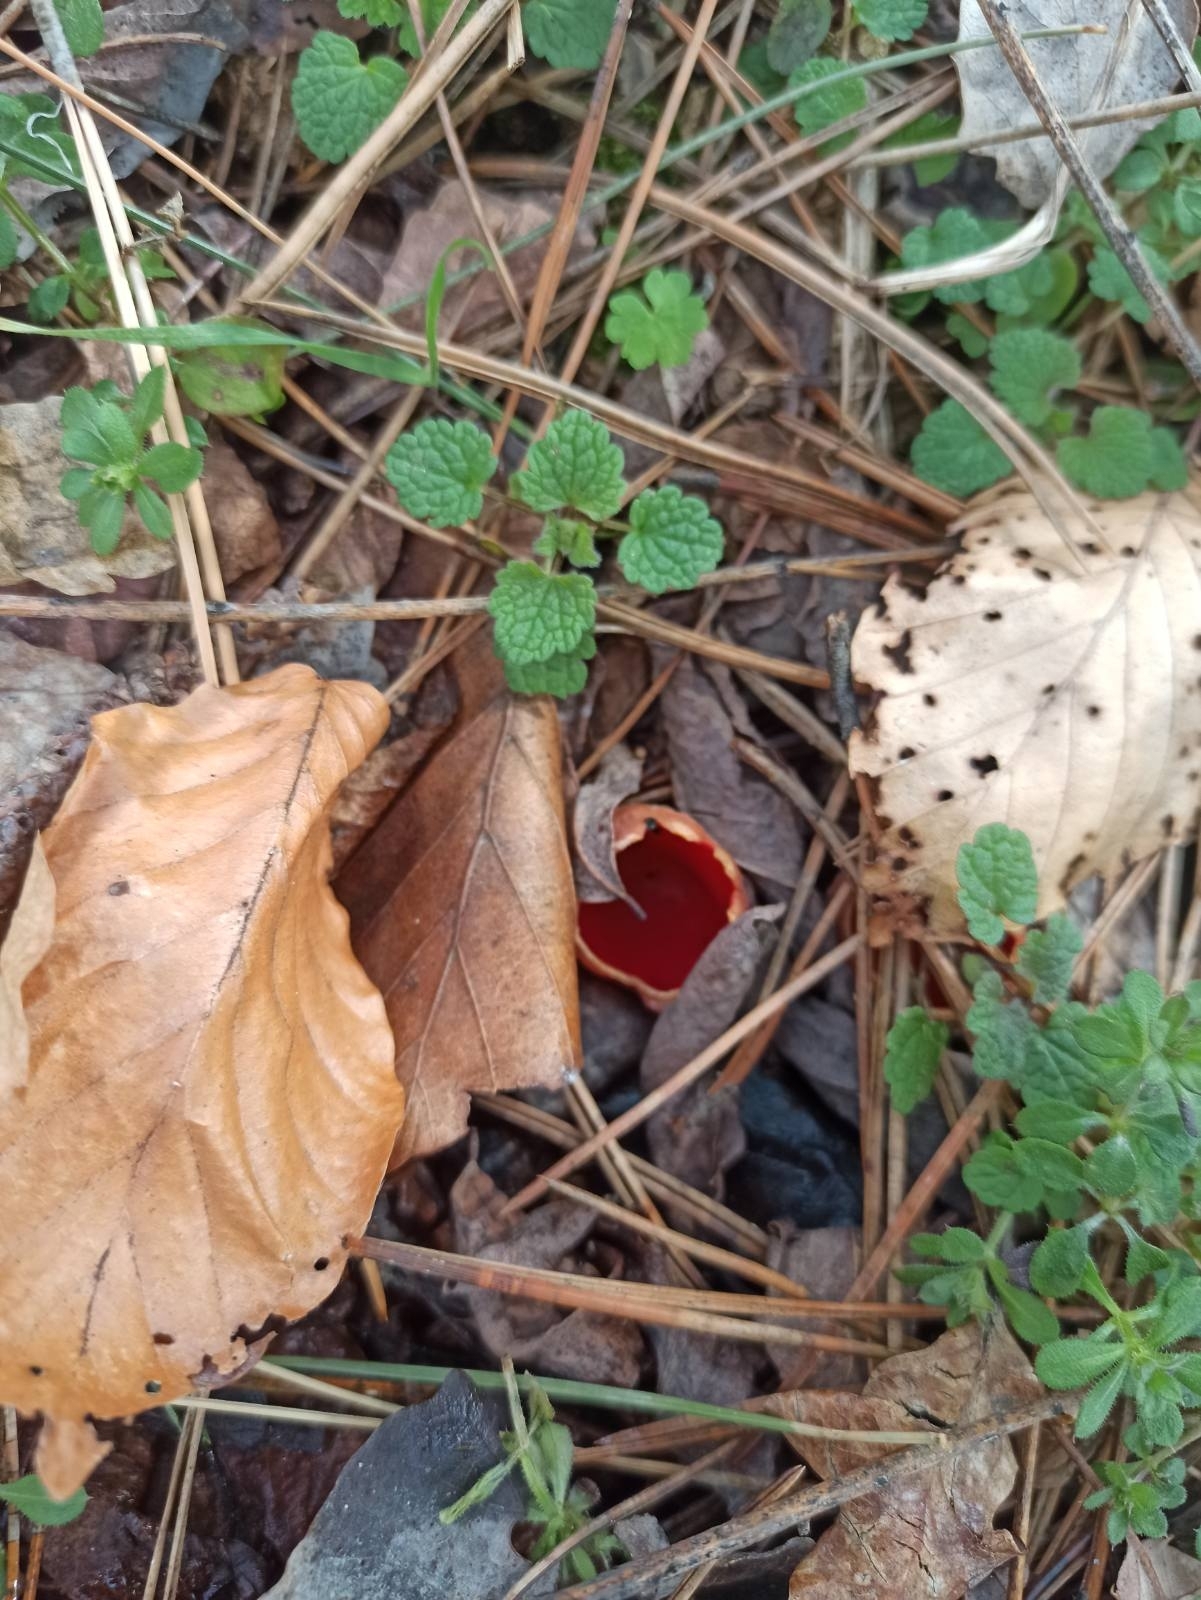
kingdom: Fungi
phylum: Ascomycota
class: Pezizomycetes
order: Pezizales
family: Sarcoscyphaceae
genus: Sarcoscypha
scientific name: Sarcoscypha
